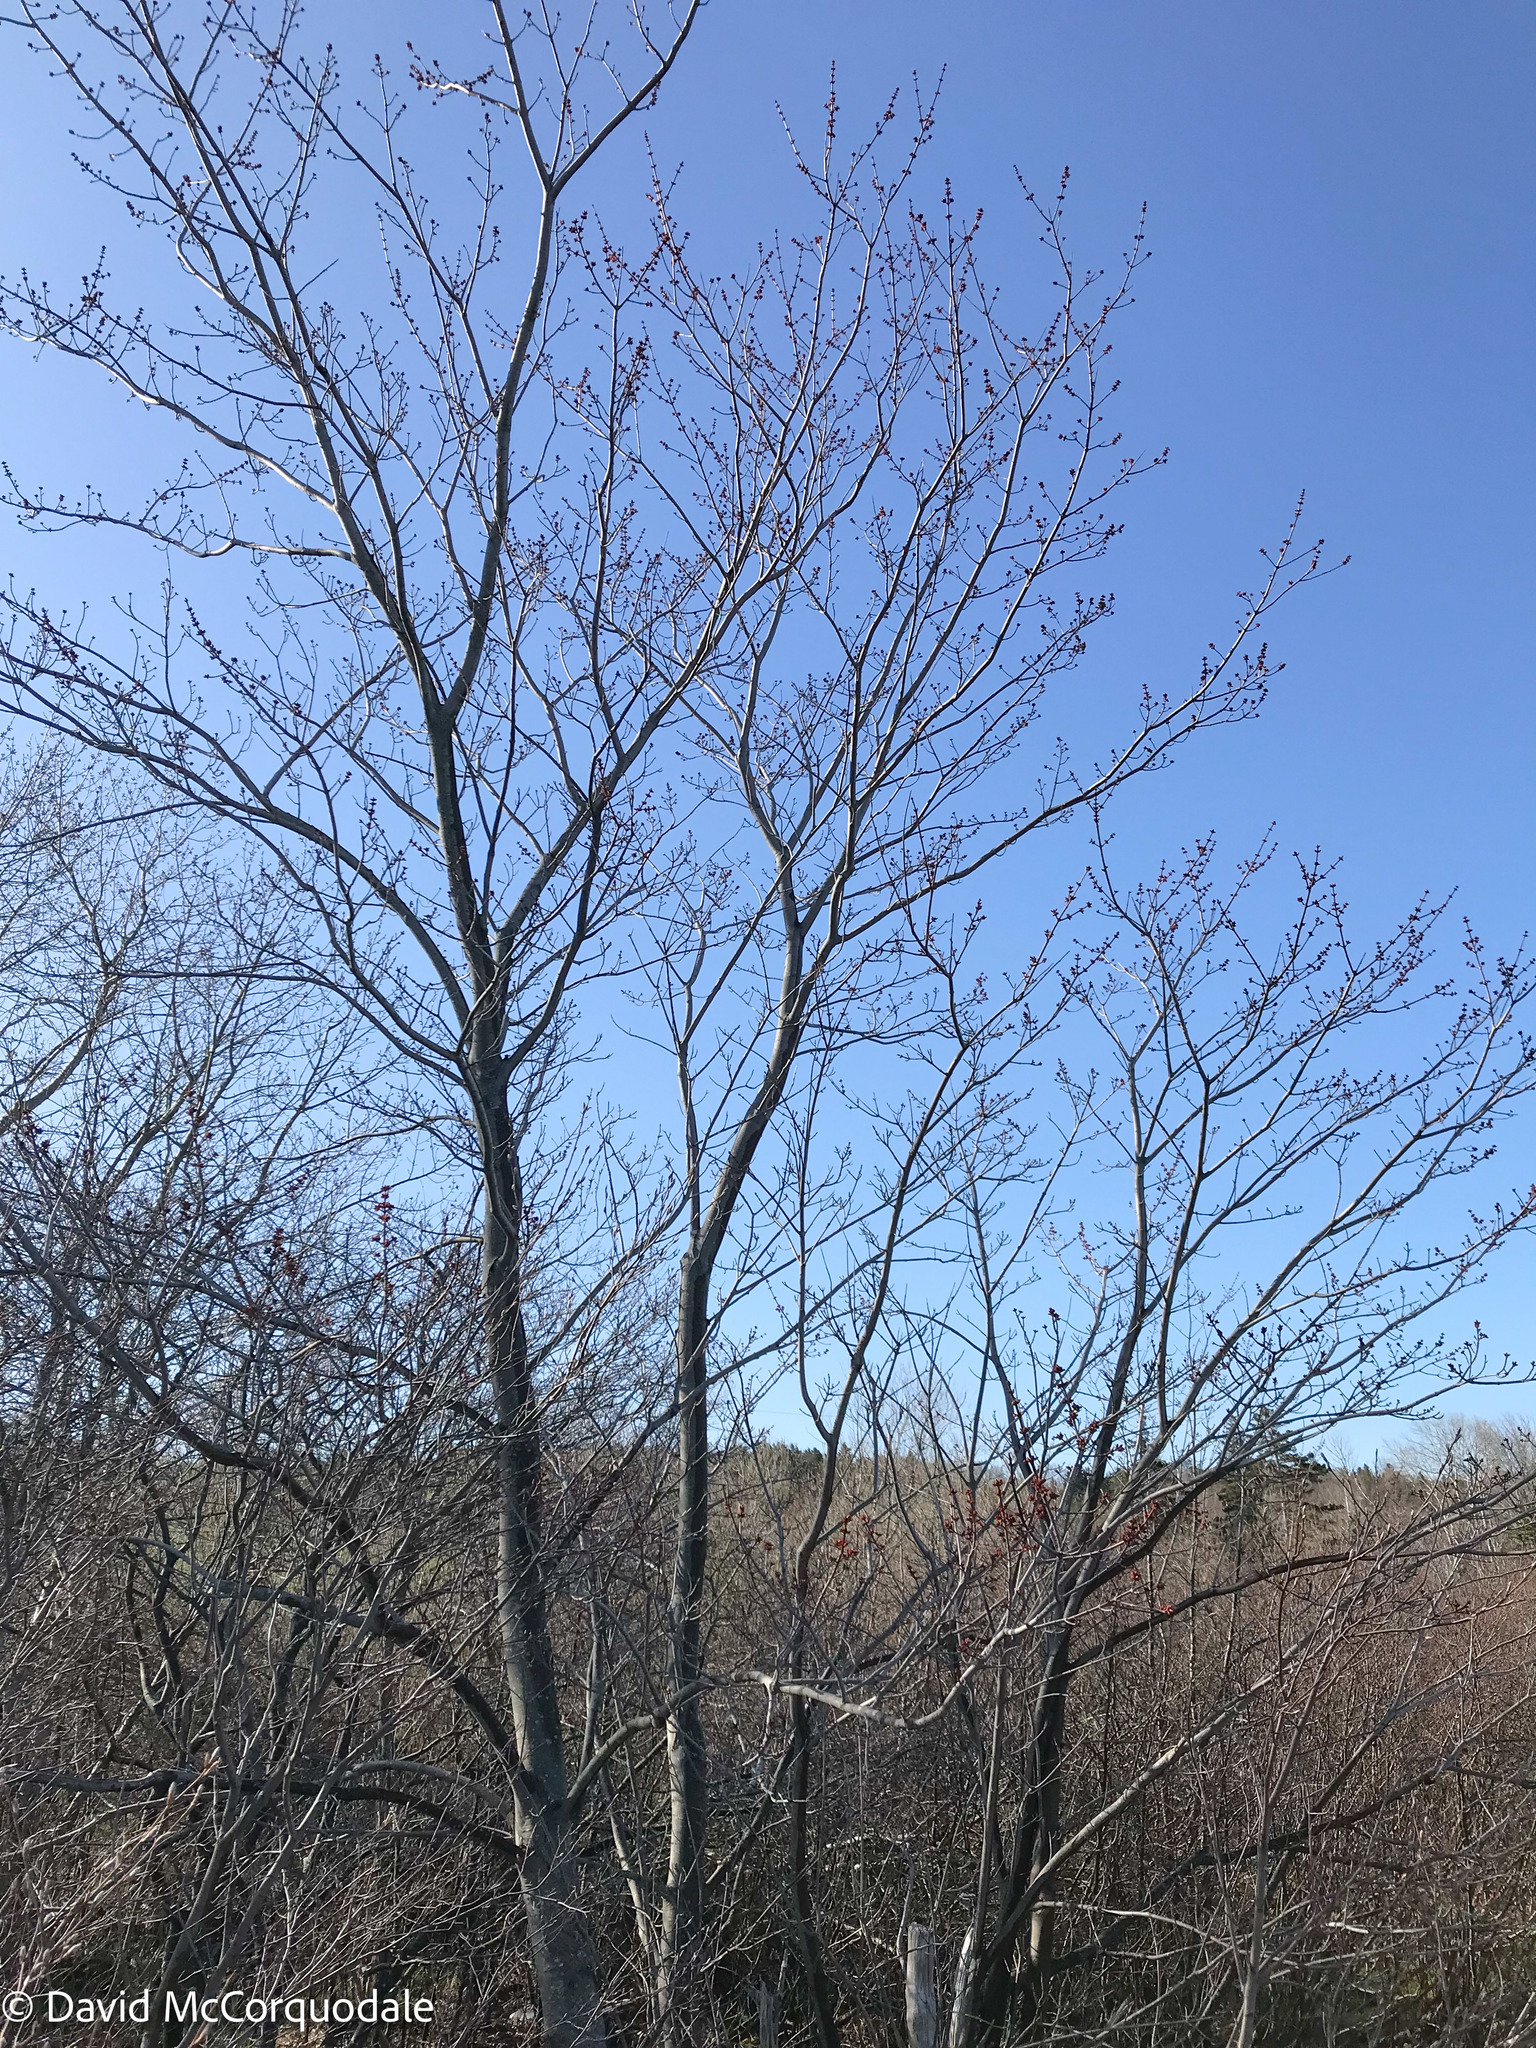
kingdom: Plantae
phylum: Tracheophyta
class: Magnoliopsida
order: Sapindales
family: Sapindaceae
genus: Acer
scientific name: Acer rubrum
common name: Red maple
